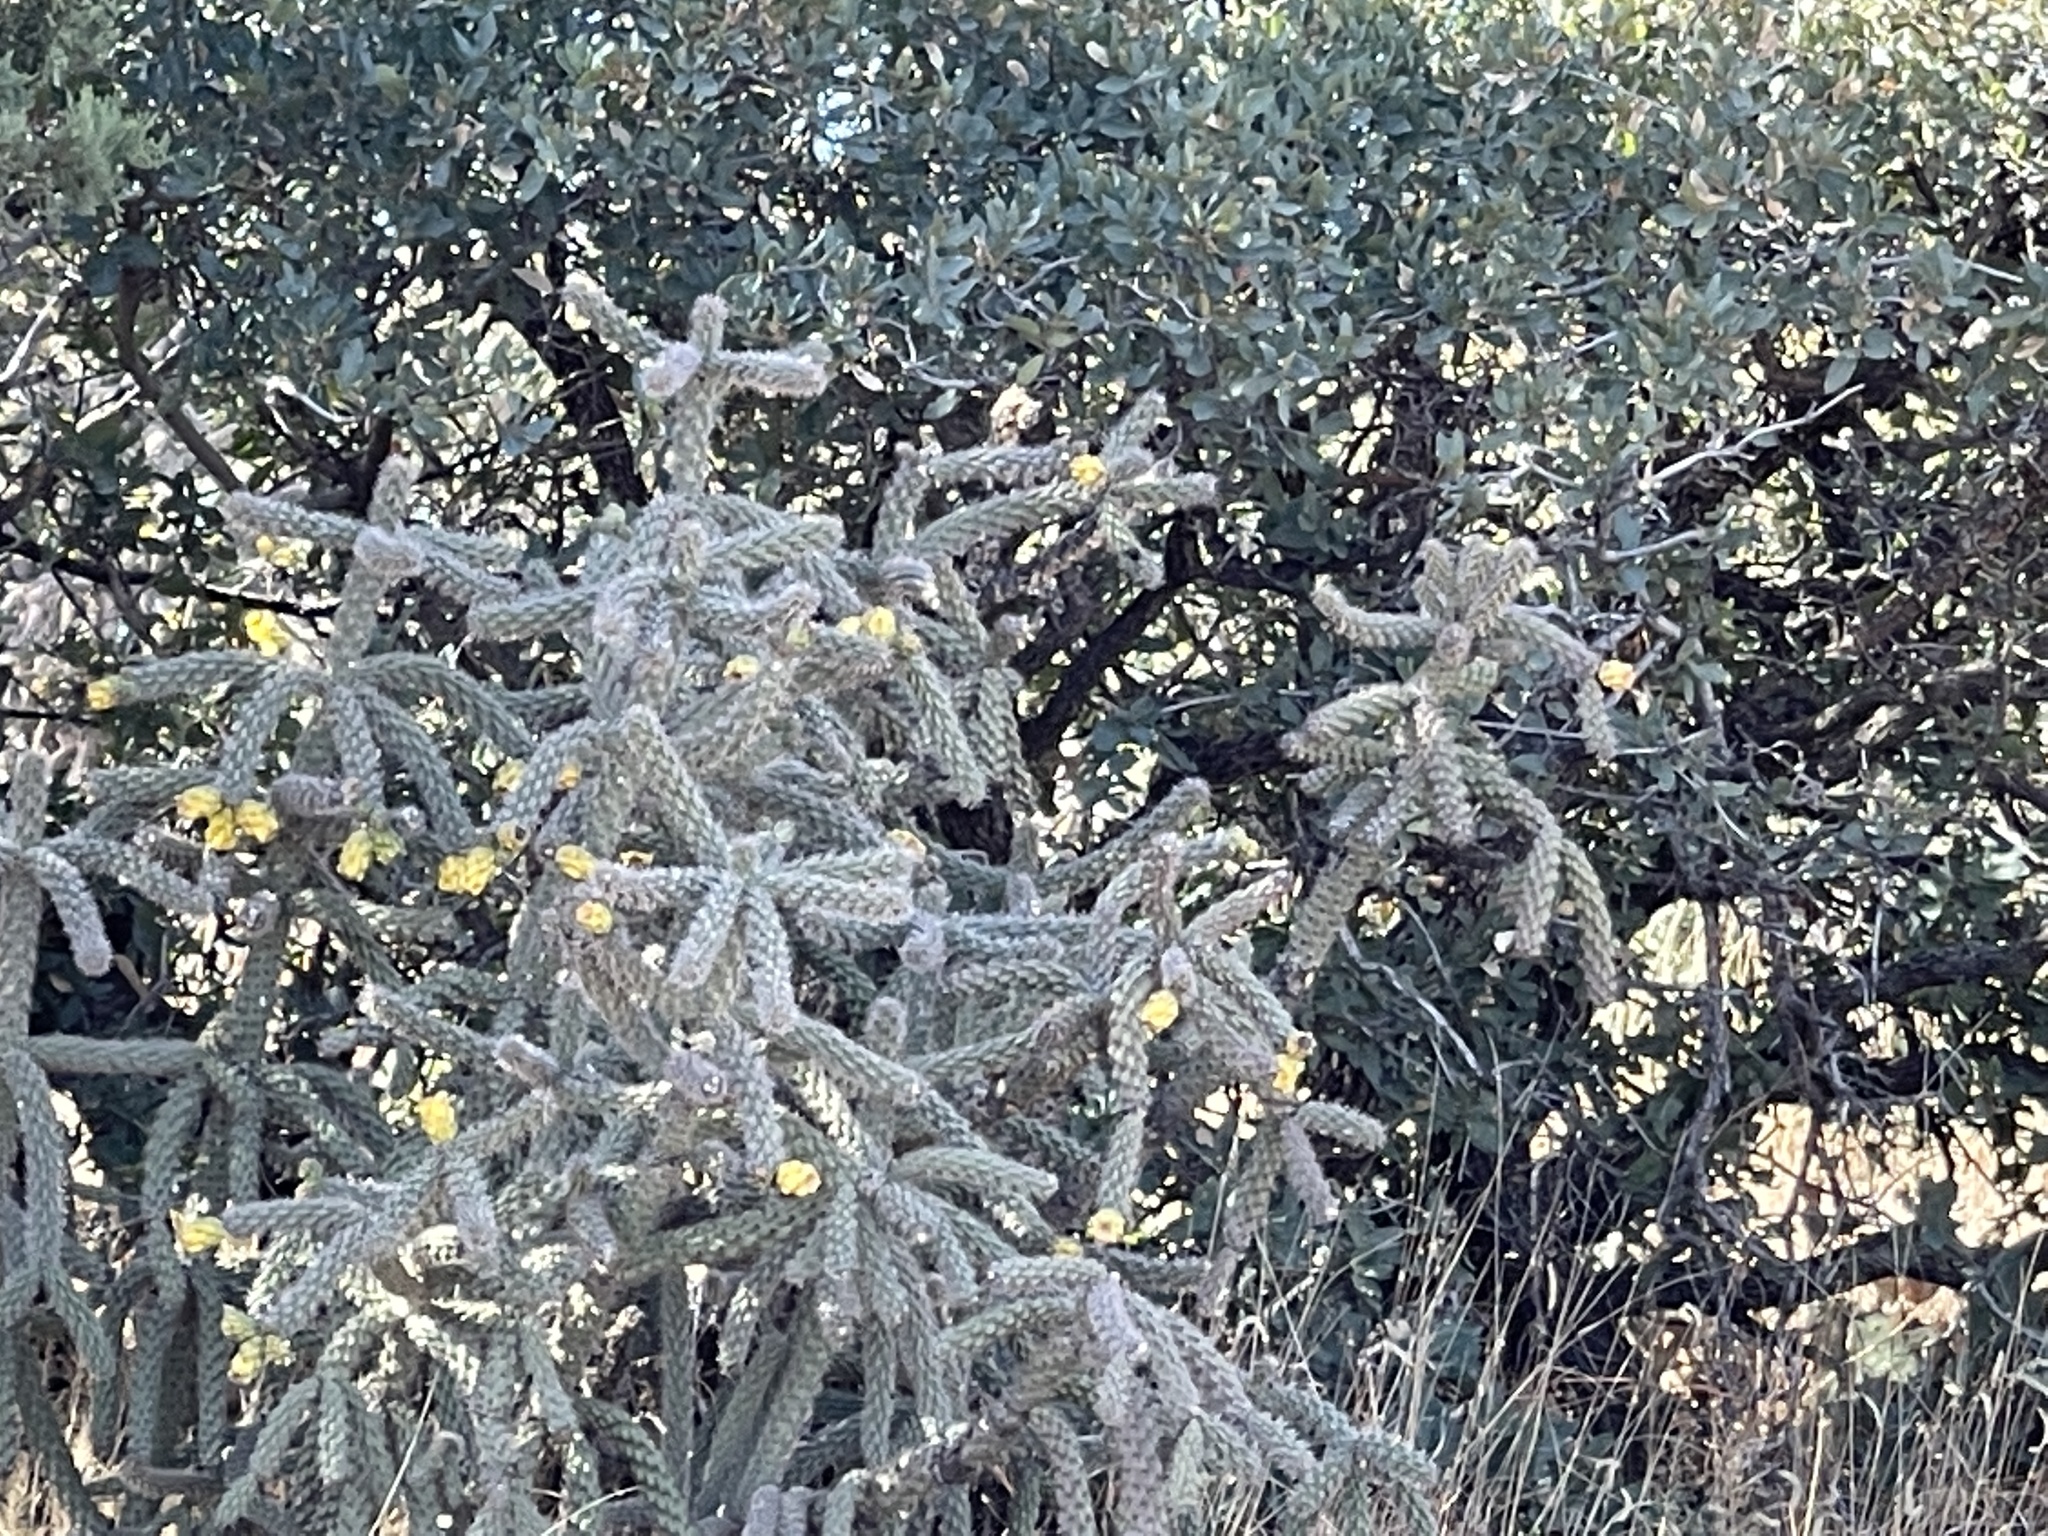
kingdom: Plantae
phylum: Tracheophyta
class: Magnoliopsida
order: Caryophyllales
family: Cactaceae
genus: Cylindropuntia
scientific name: Cylindropuntia imbricata
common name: Candelabrum cactus
